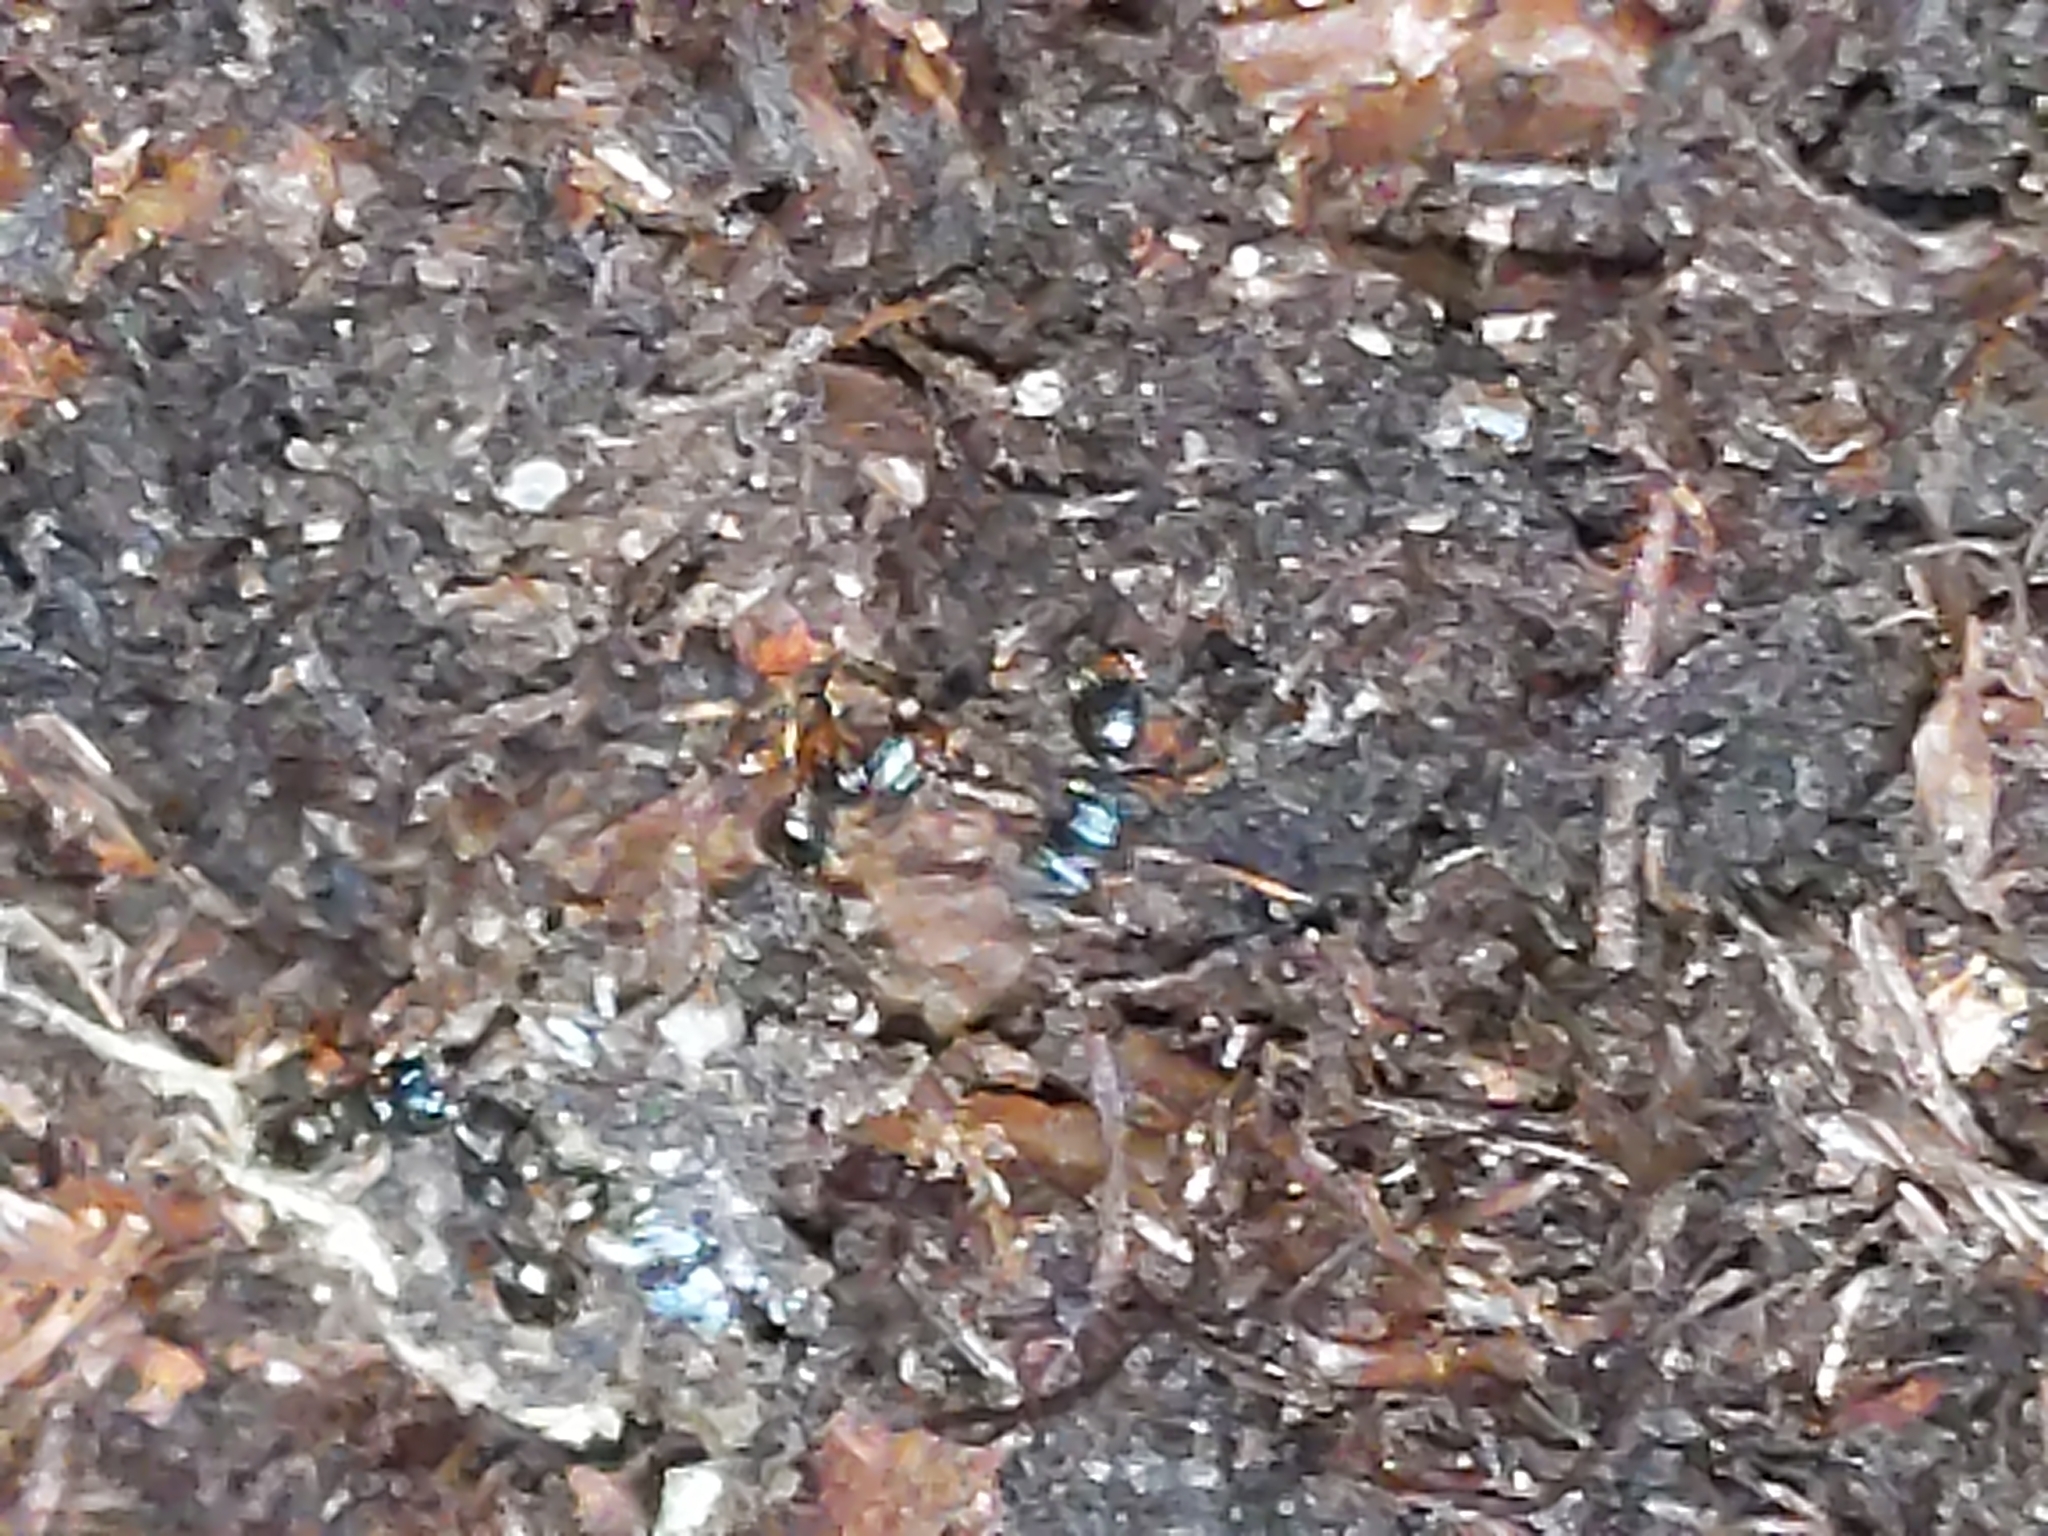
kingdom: Animalia
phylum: Arthropoda
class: Insecta
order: Hymenoptera
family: Formicidae
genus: Myrmecina
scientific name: Myrmecina americana
